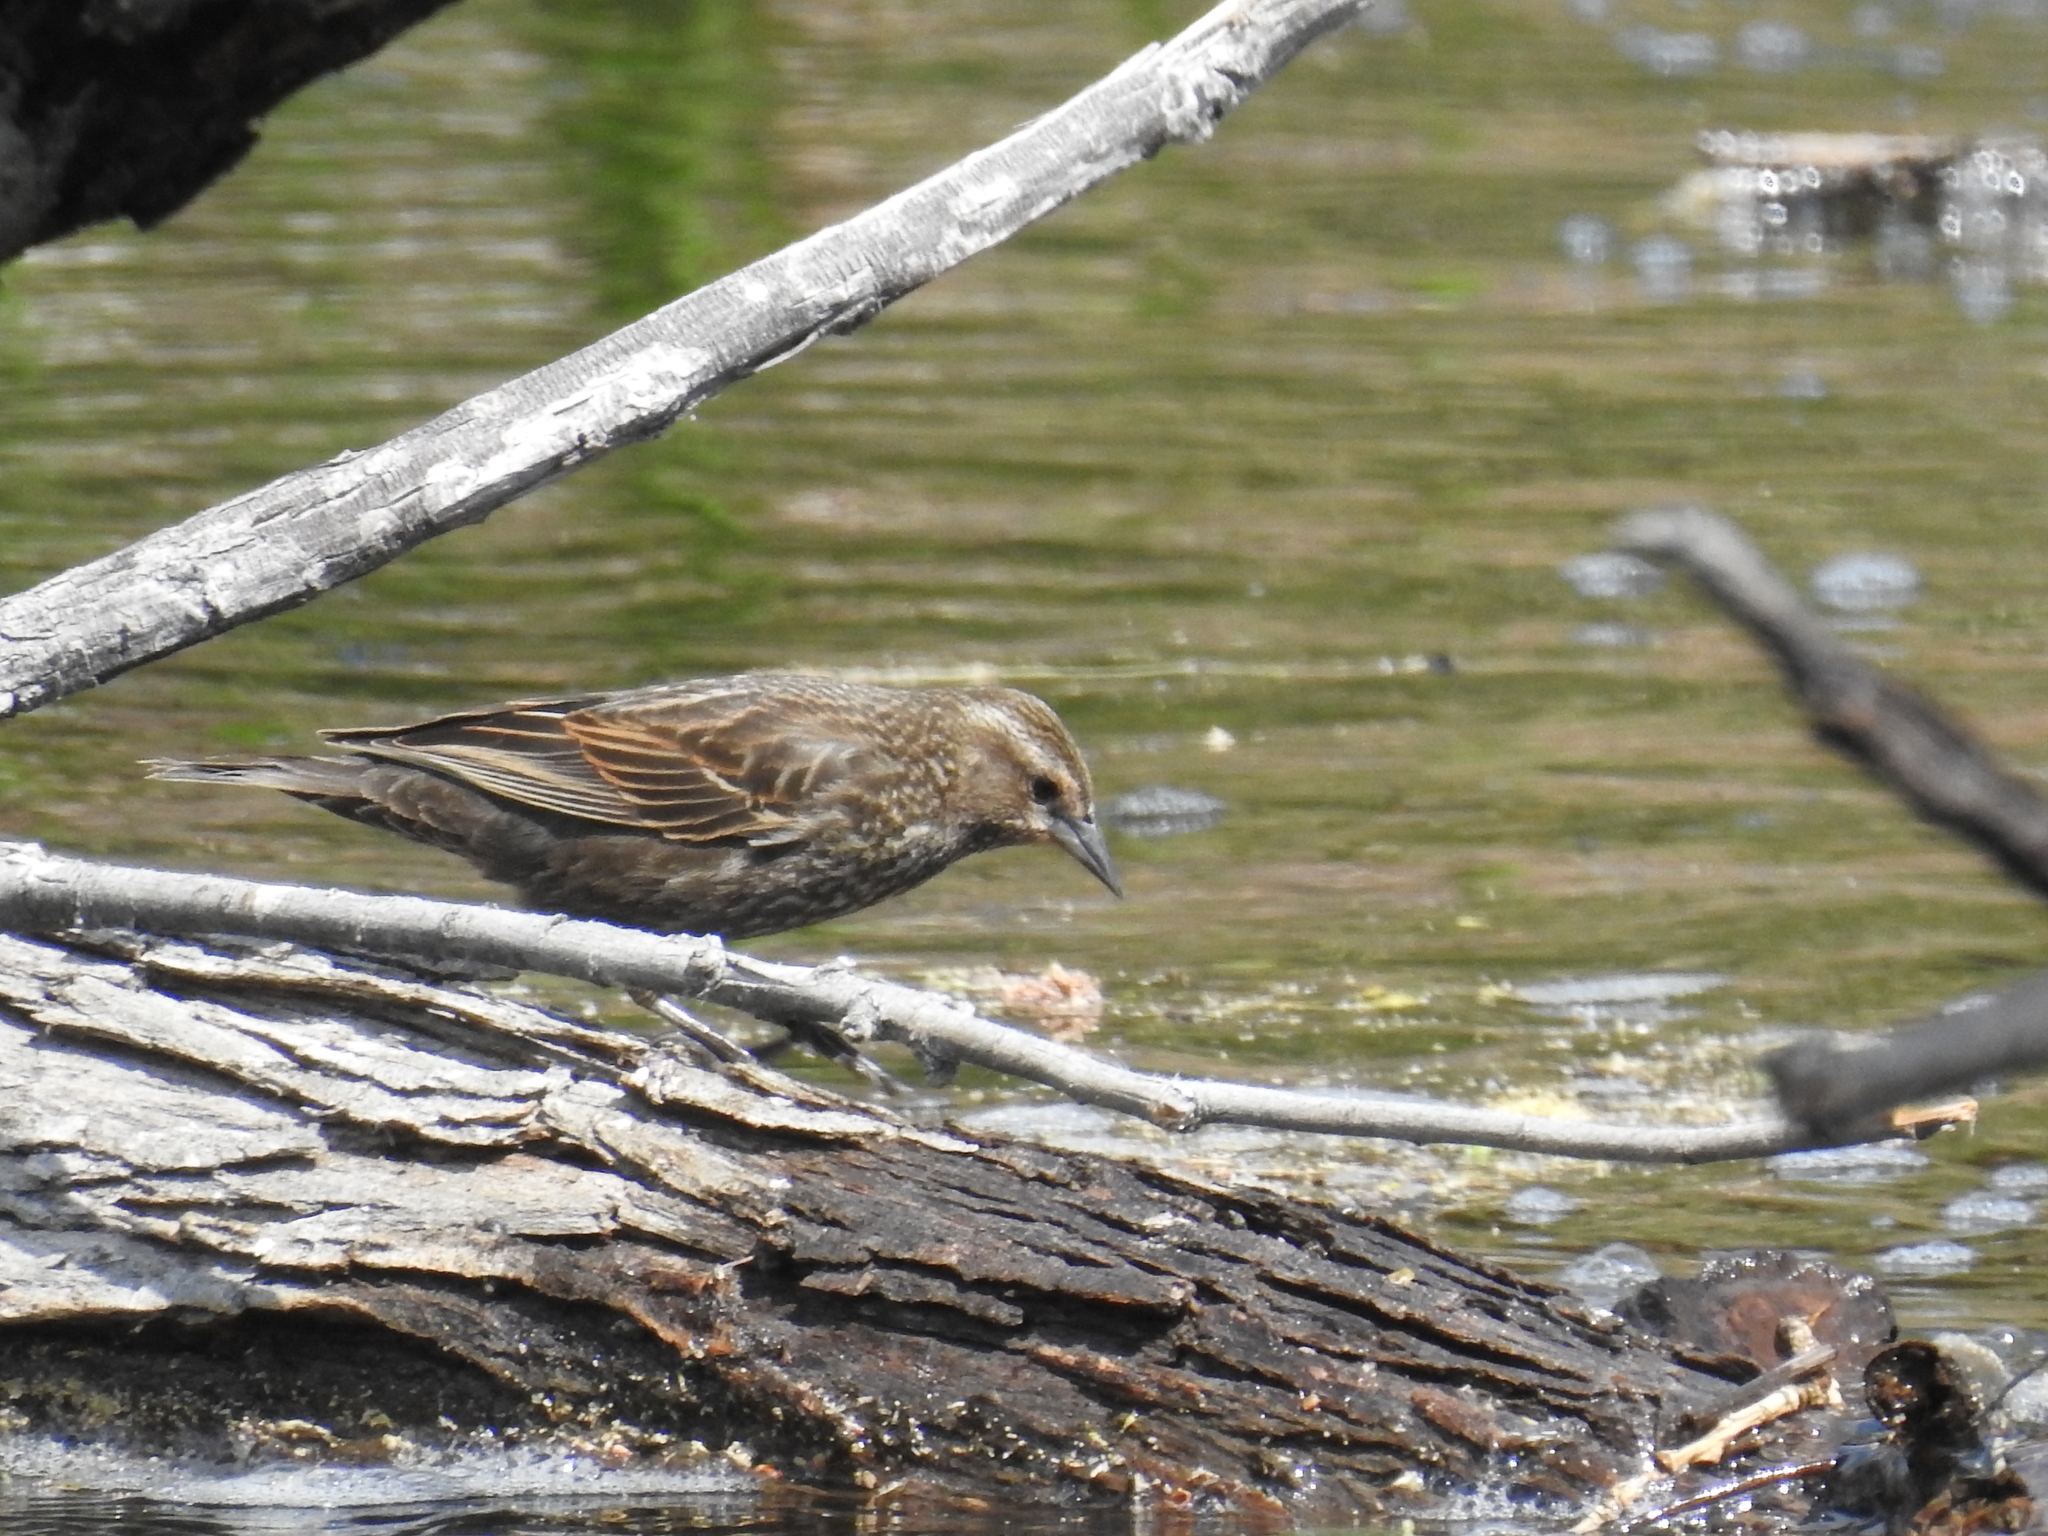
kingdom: Animalia
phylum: Chordata
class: Aves
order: Passeriformes
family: Icteridae
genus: Agelaius
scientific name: Agelaius phoeniceus
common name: Red-winged blackbird
